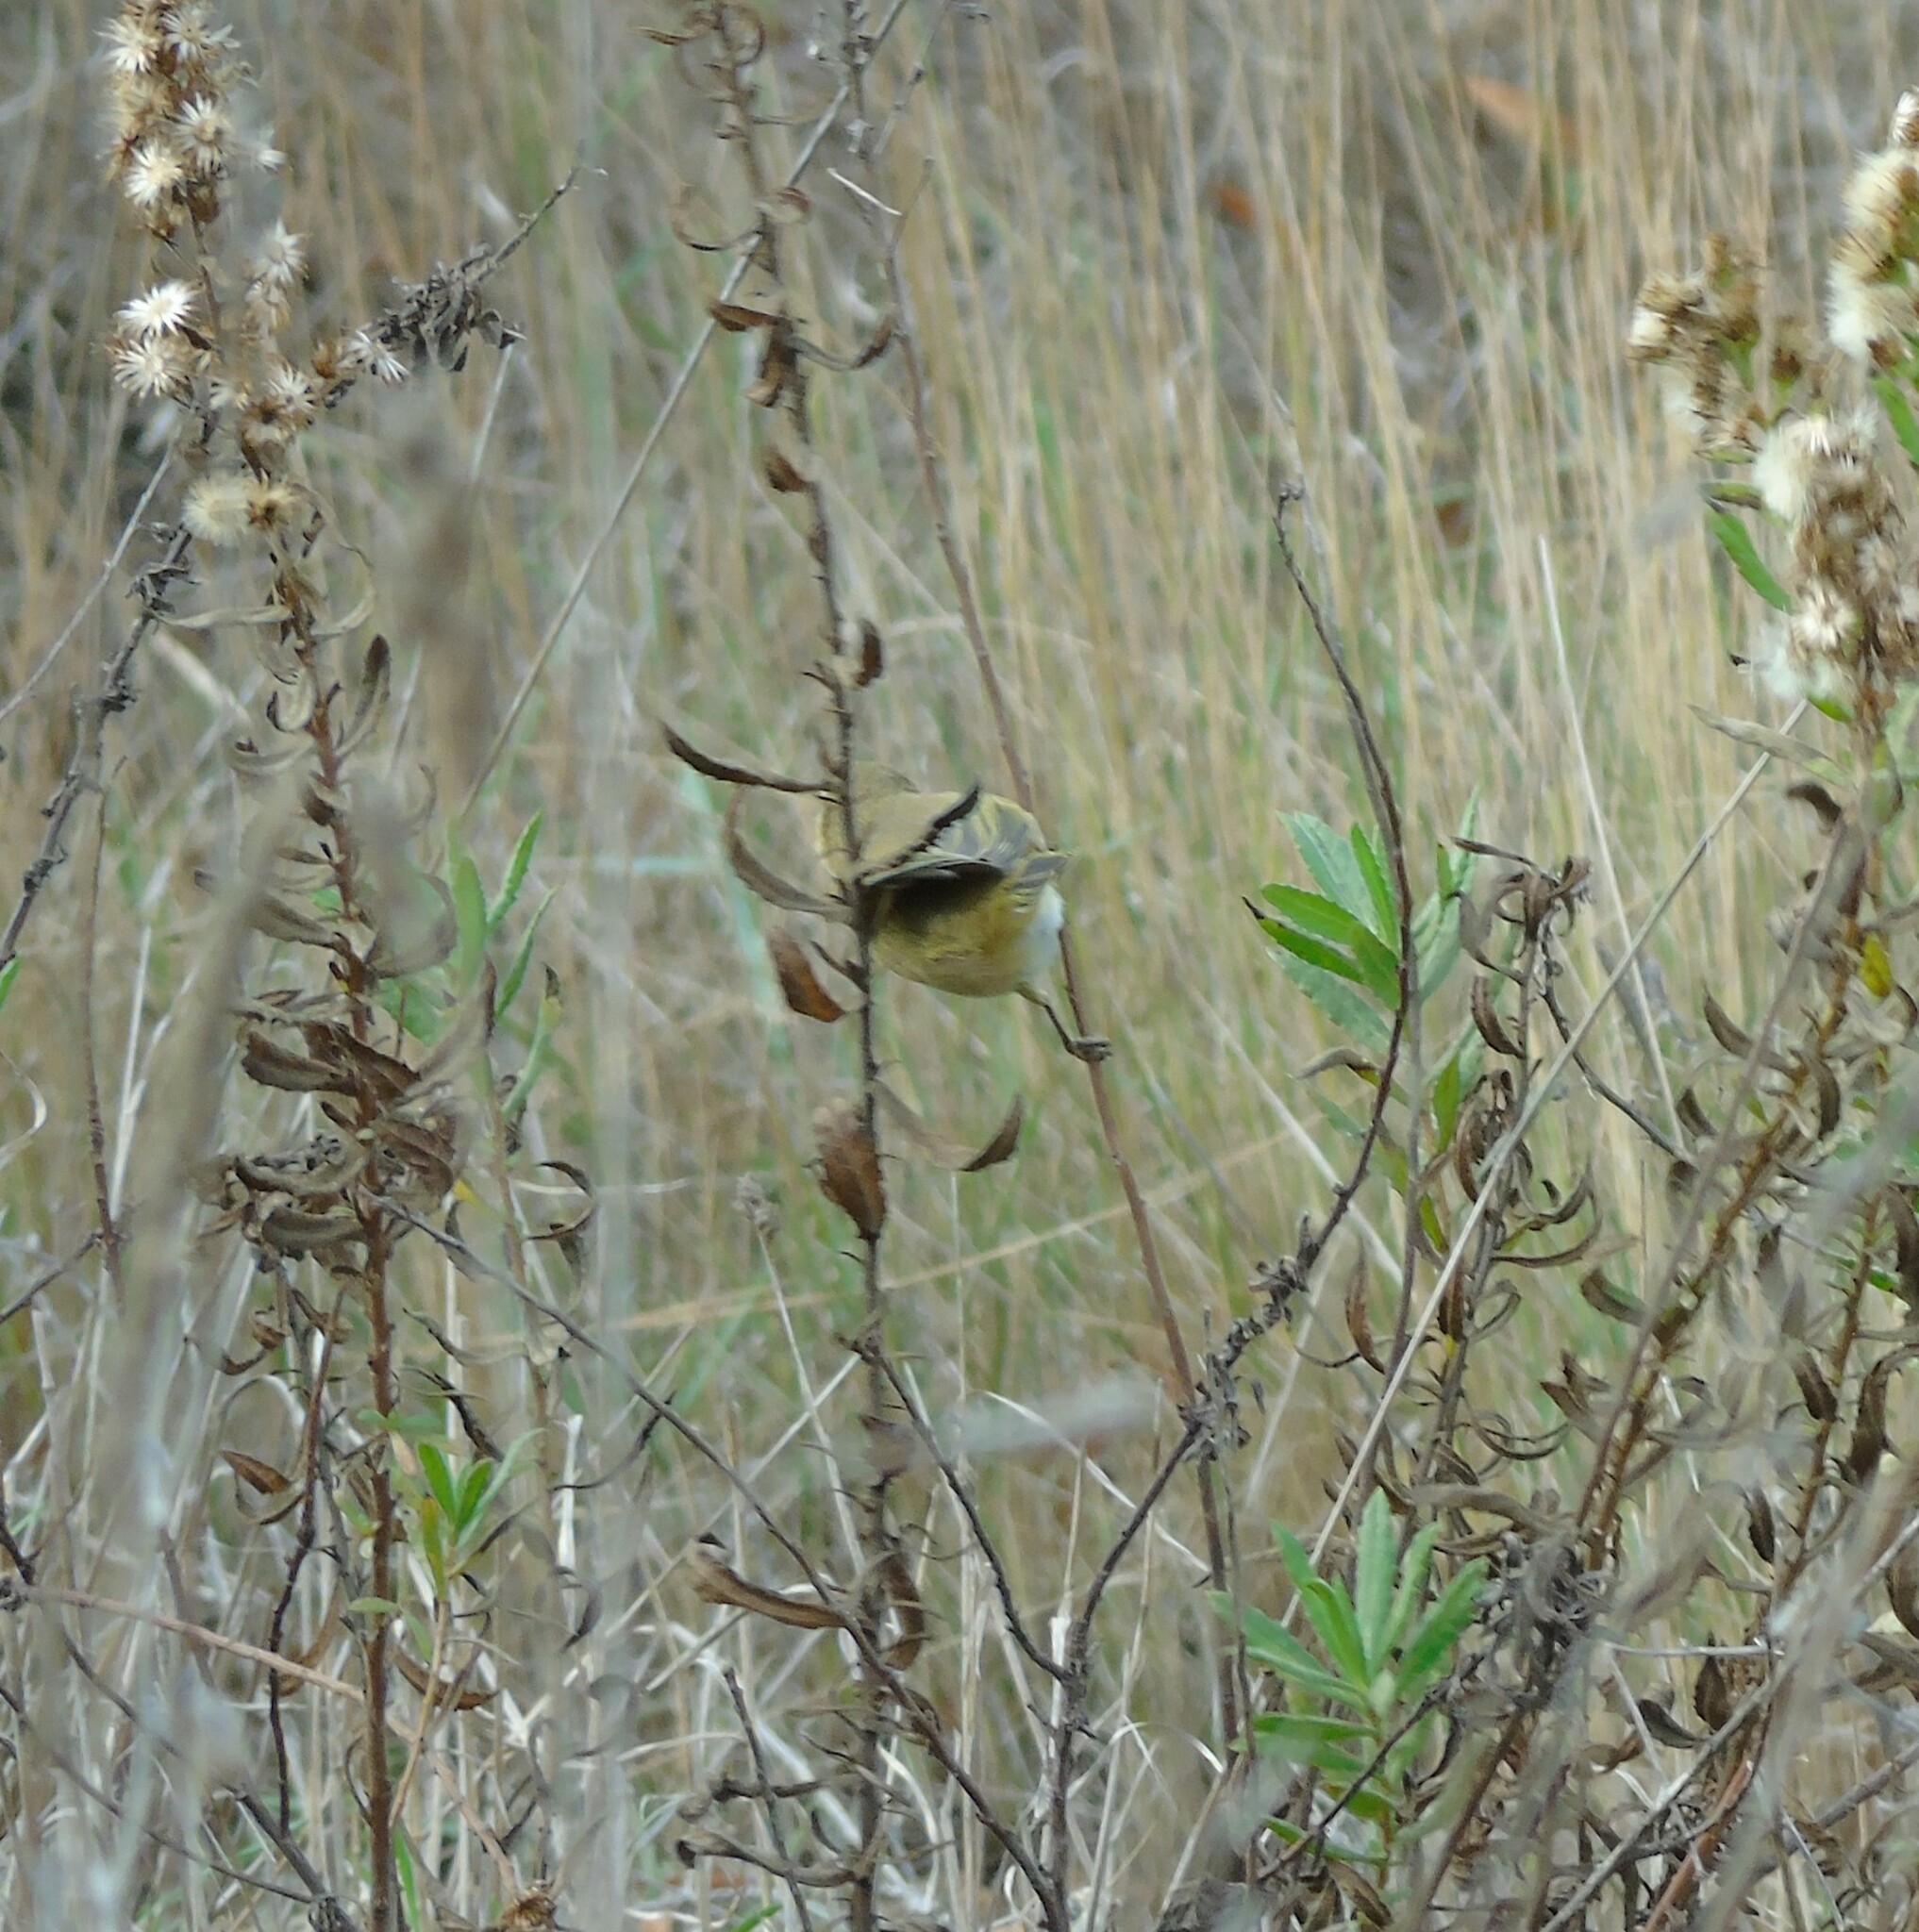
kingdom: Animalia
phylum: Chordata
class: Aves
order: Passeriformes
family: Phylloscopidae
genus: Phylloscopus
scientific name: Phylloscopus collybita
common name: Common chiffchaff
